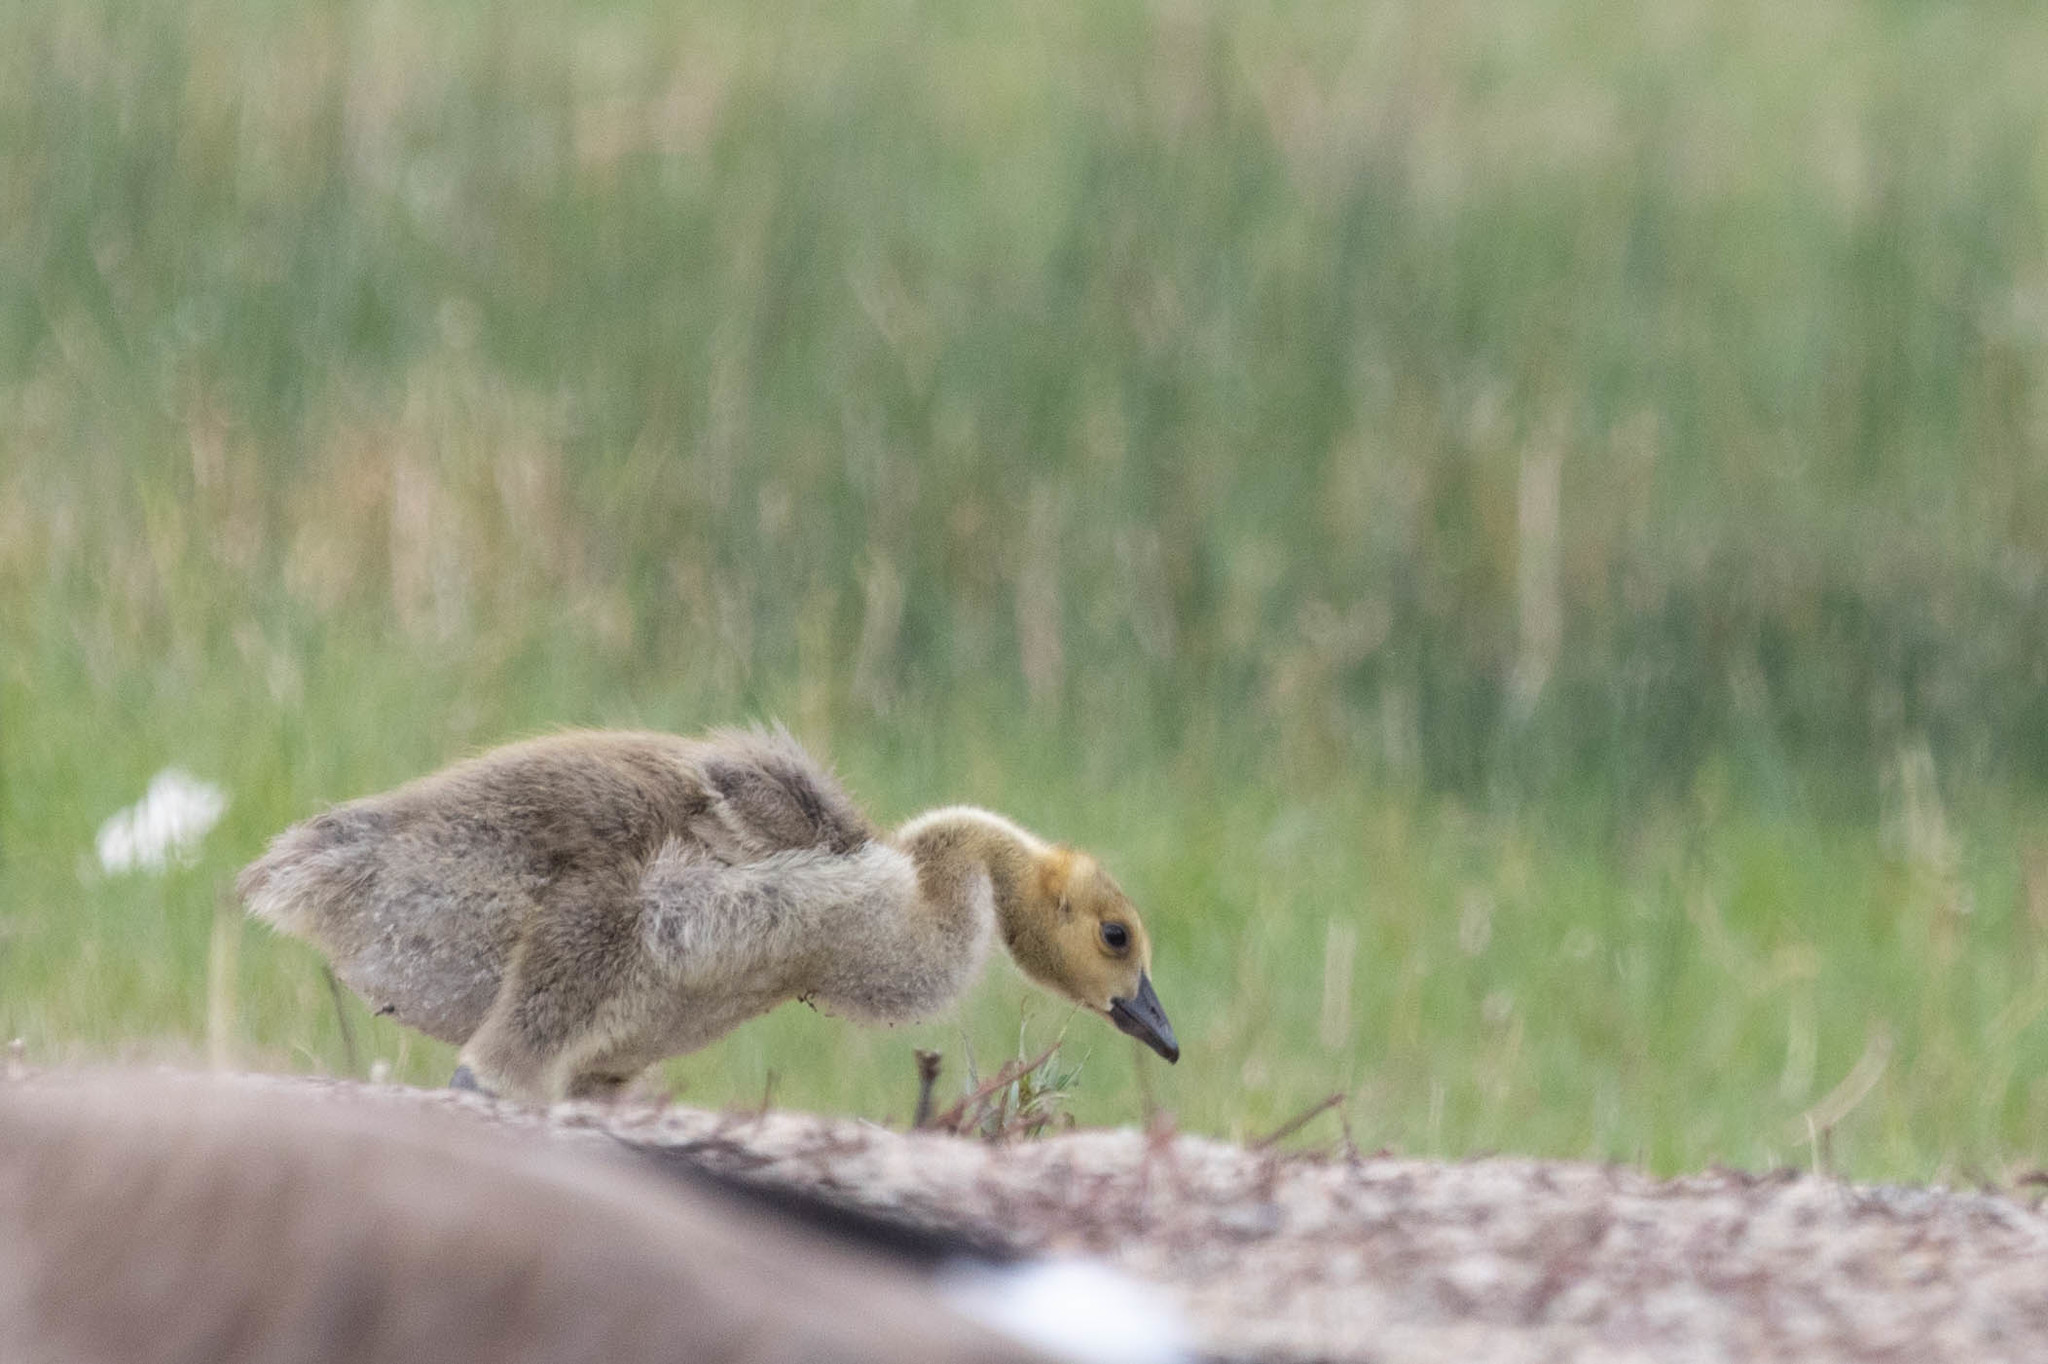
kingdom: Animalia
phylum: Chordata
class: Aves
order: Anseriformes
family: Anatidae
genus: Branta
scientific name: Branta canadensis
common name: Canada goose
